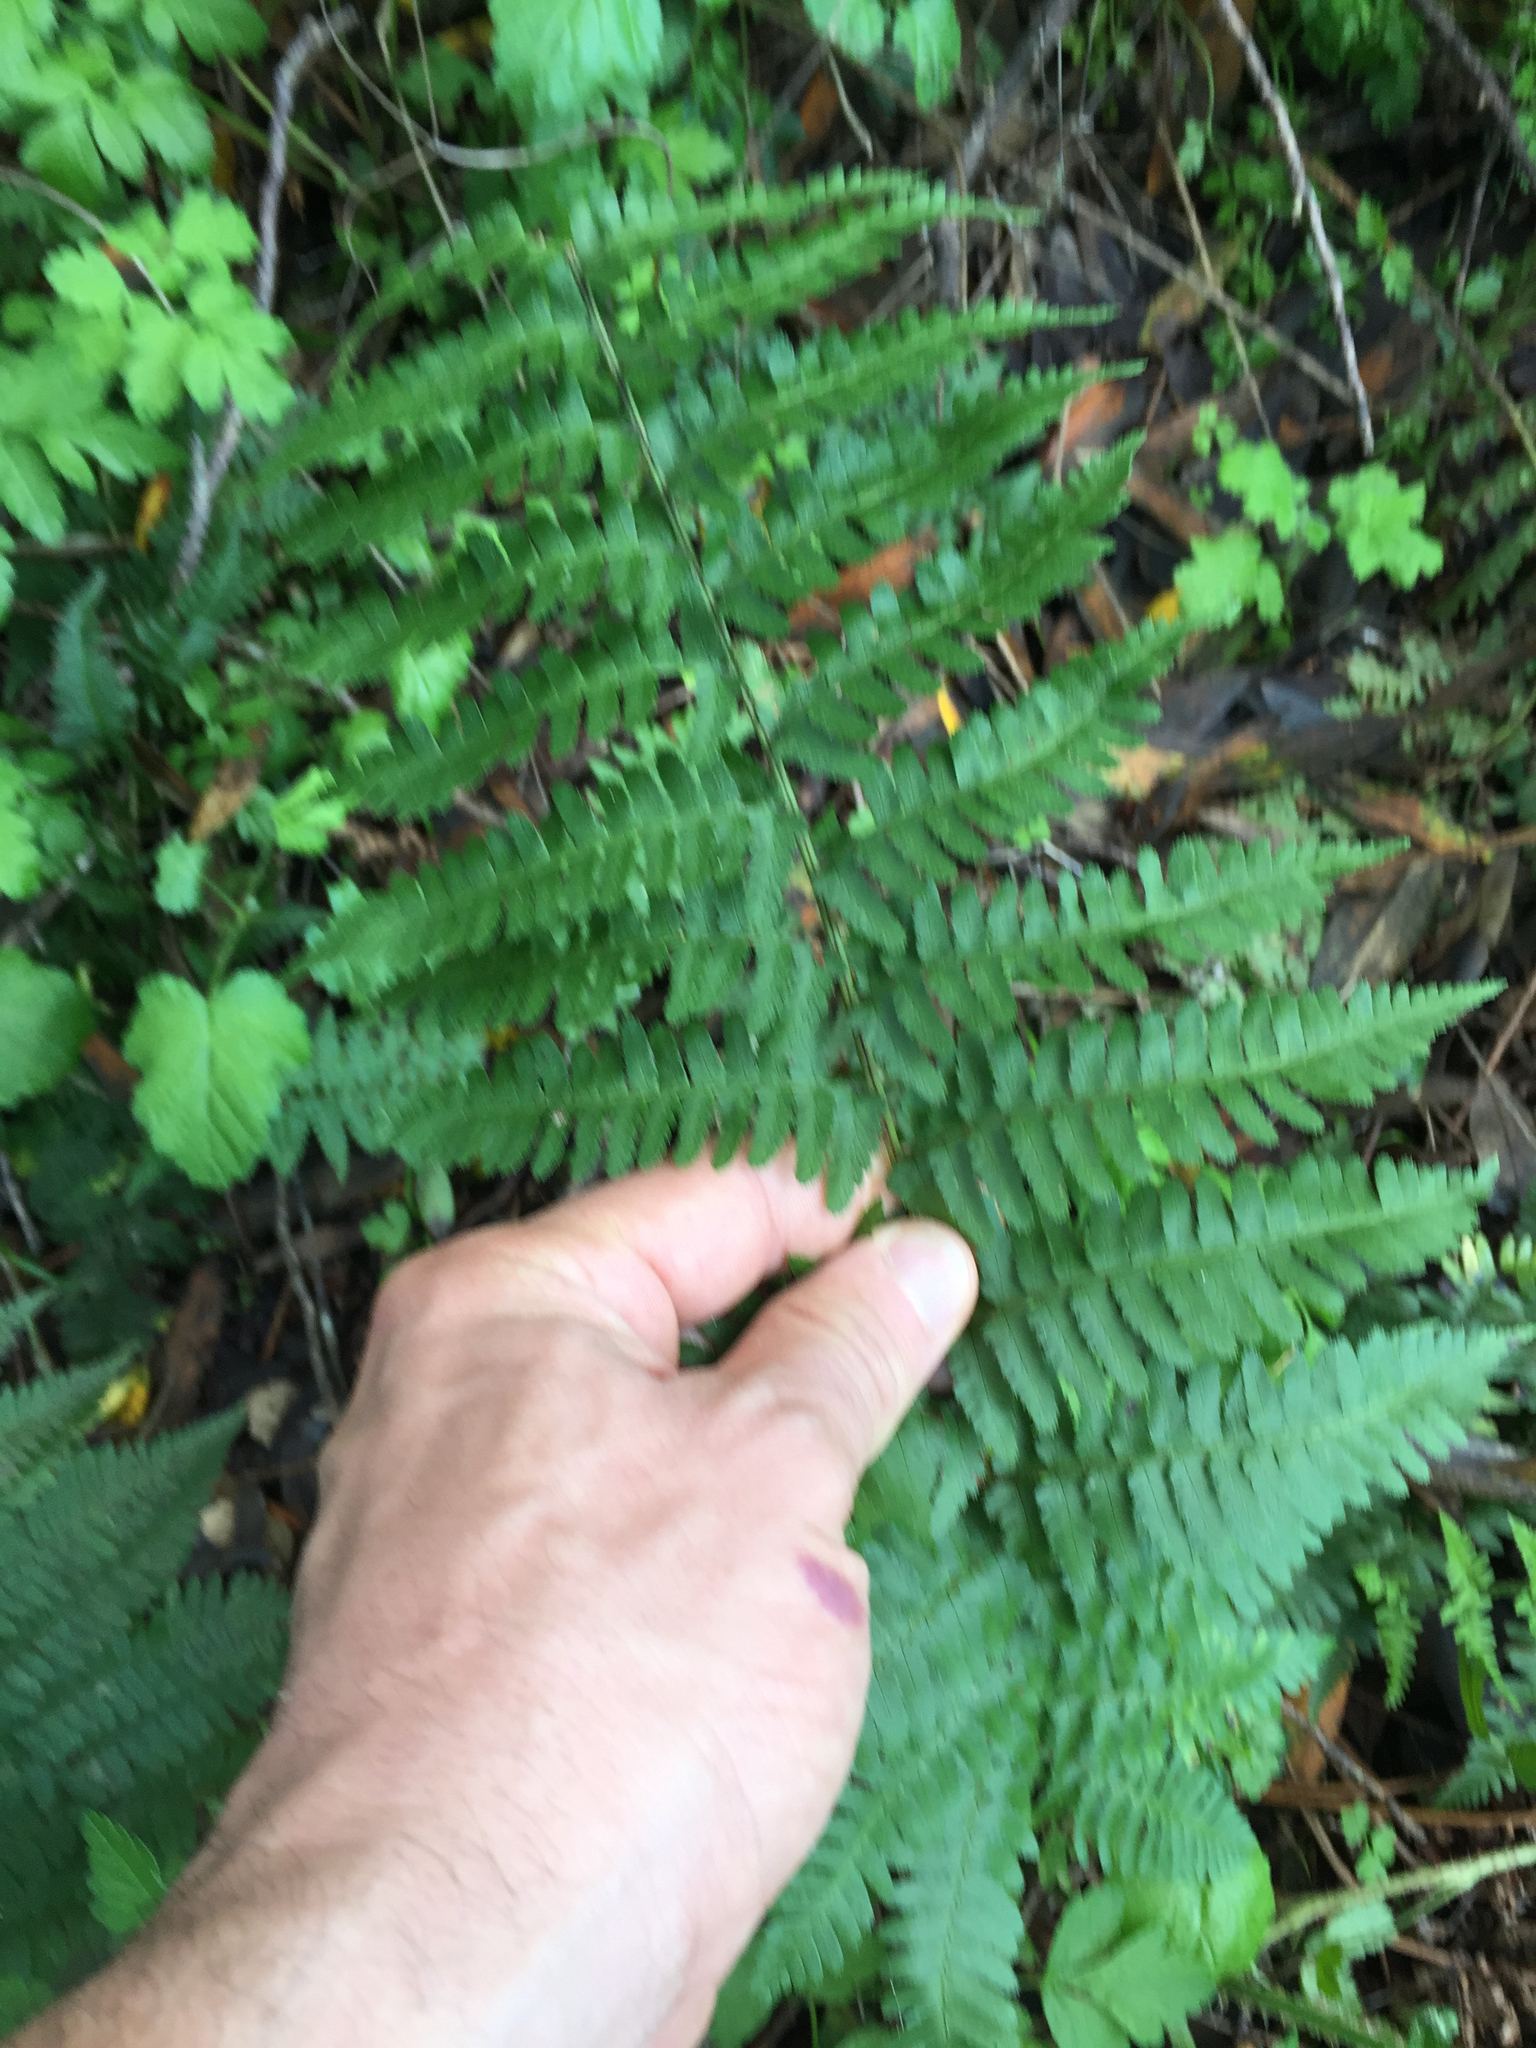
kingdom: Plantae
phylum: Tracheophyta
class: Polypodiopsida
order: Polypodiales
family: Dryopteridaceae
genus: Dryopteris
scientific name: Dryopteris arguta
